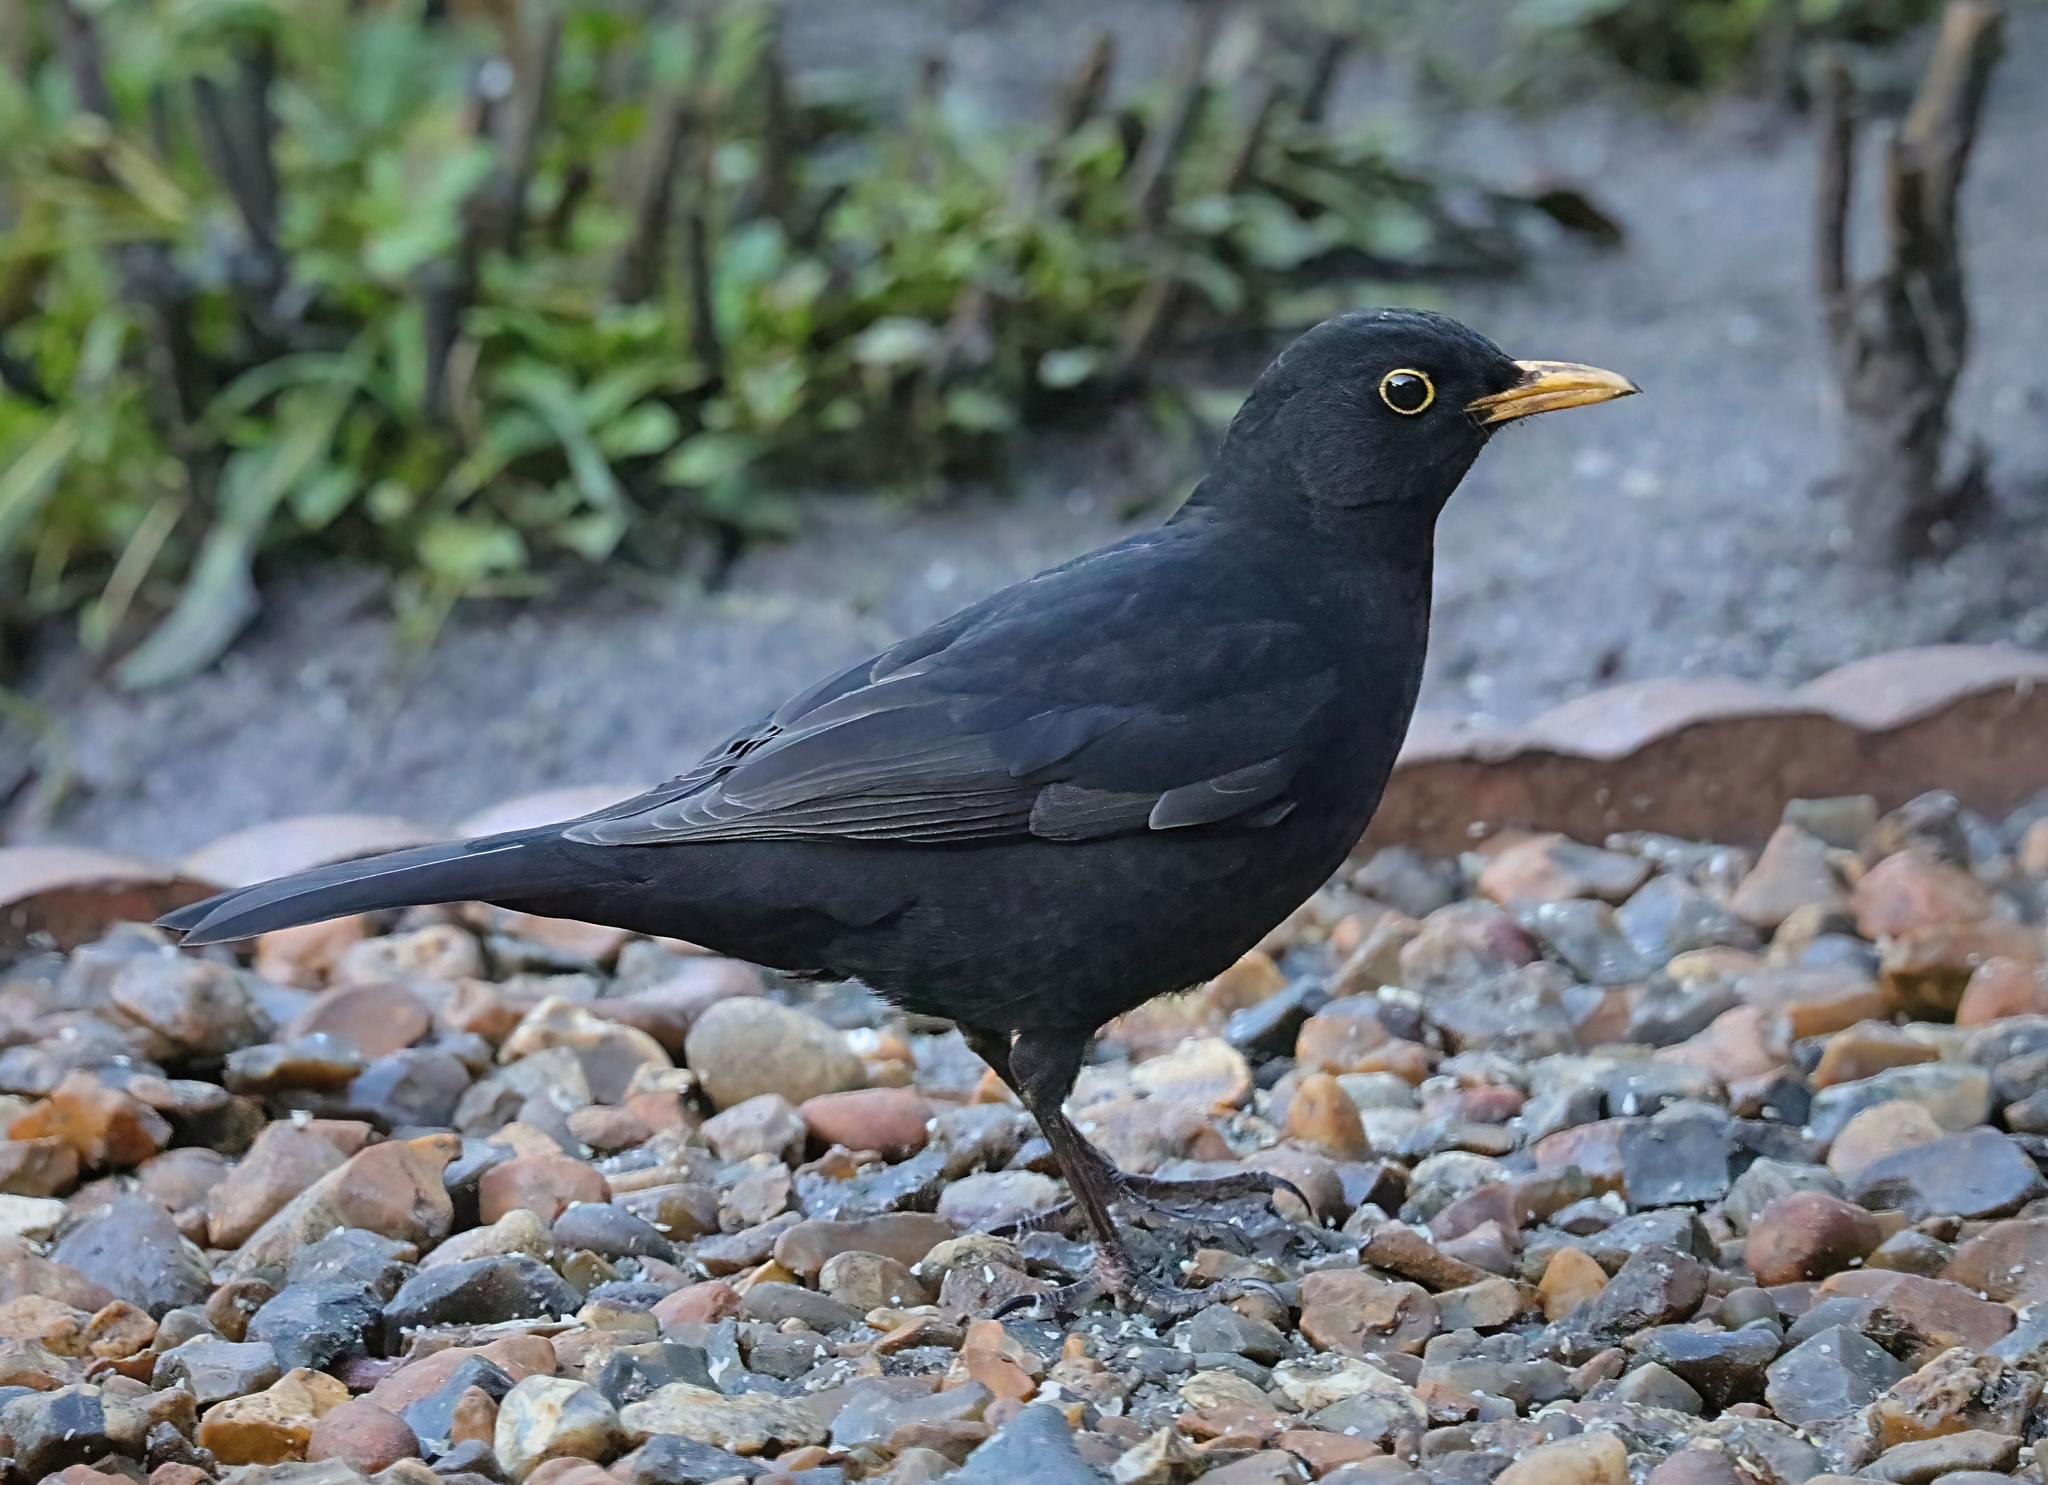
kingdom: Animalia
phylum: Chordata
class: Aves
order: Passeriformes
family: Turdidae
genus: Turdus
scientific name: Turdus merula
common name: Common blackbird
